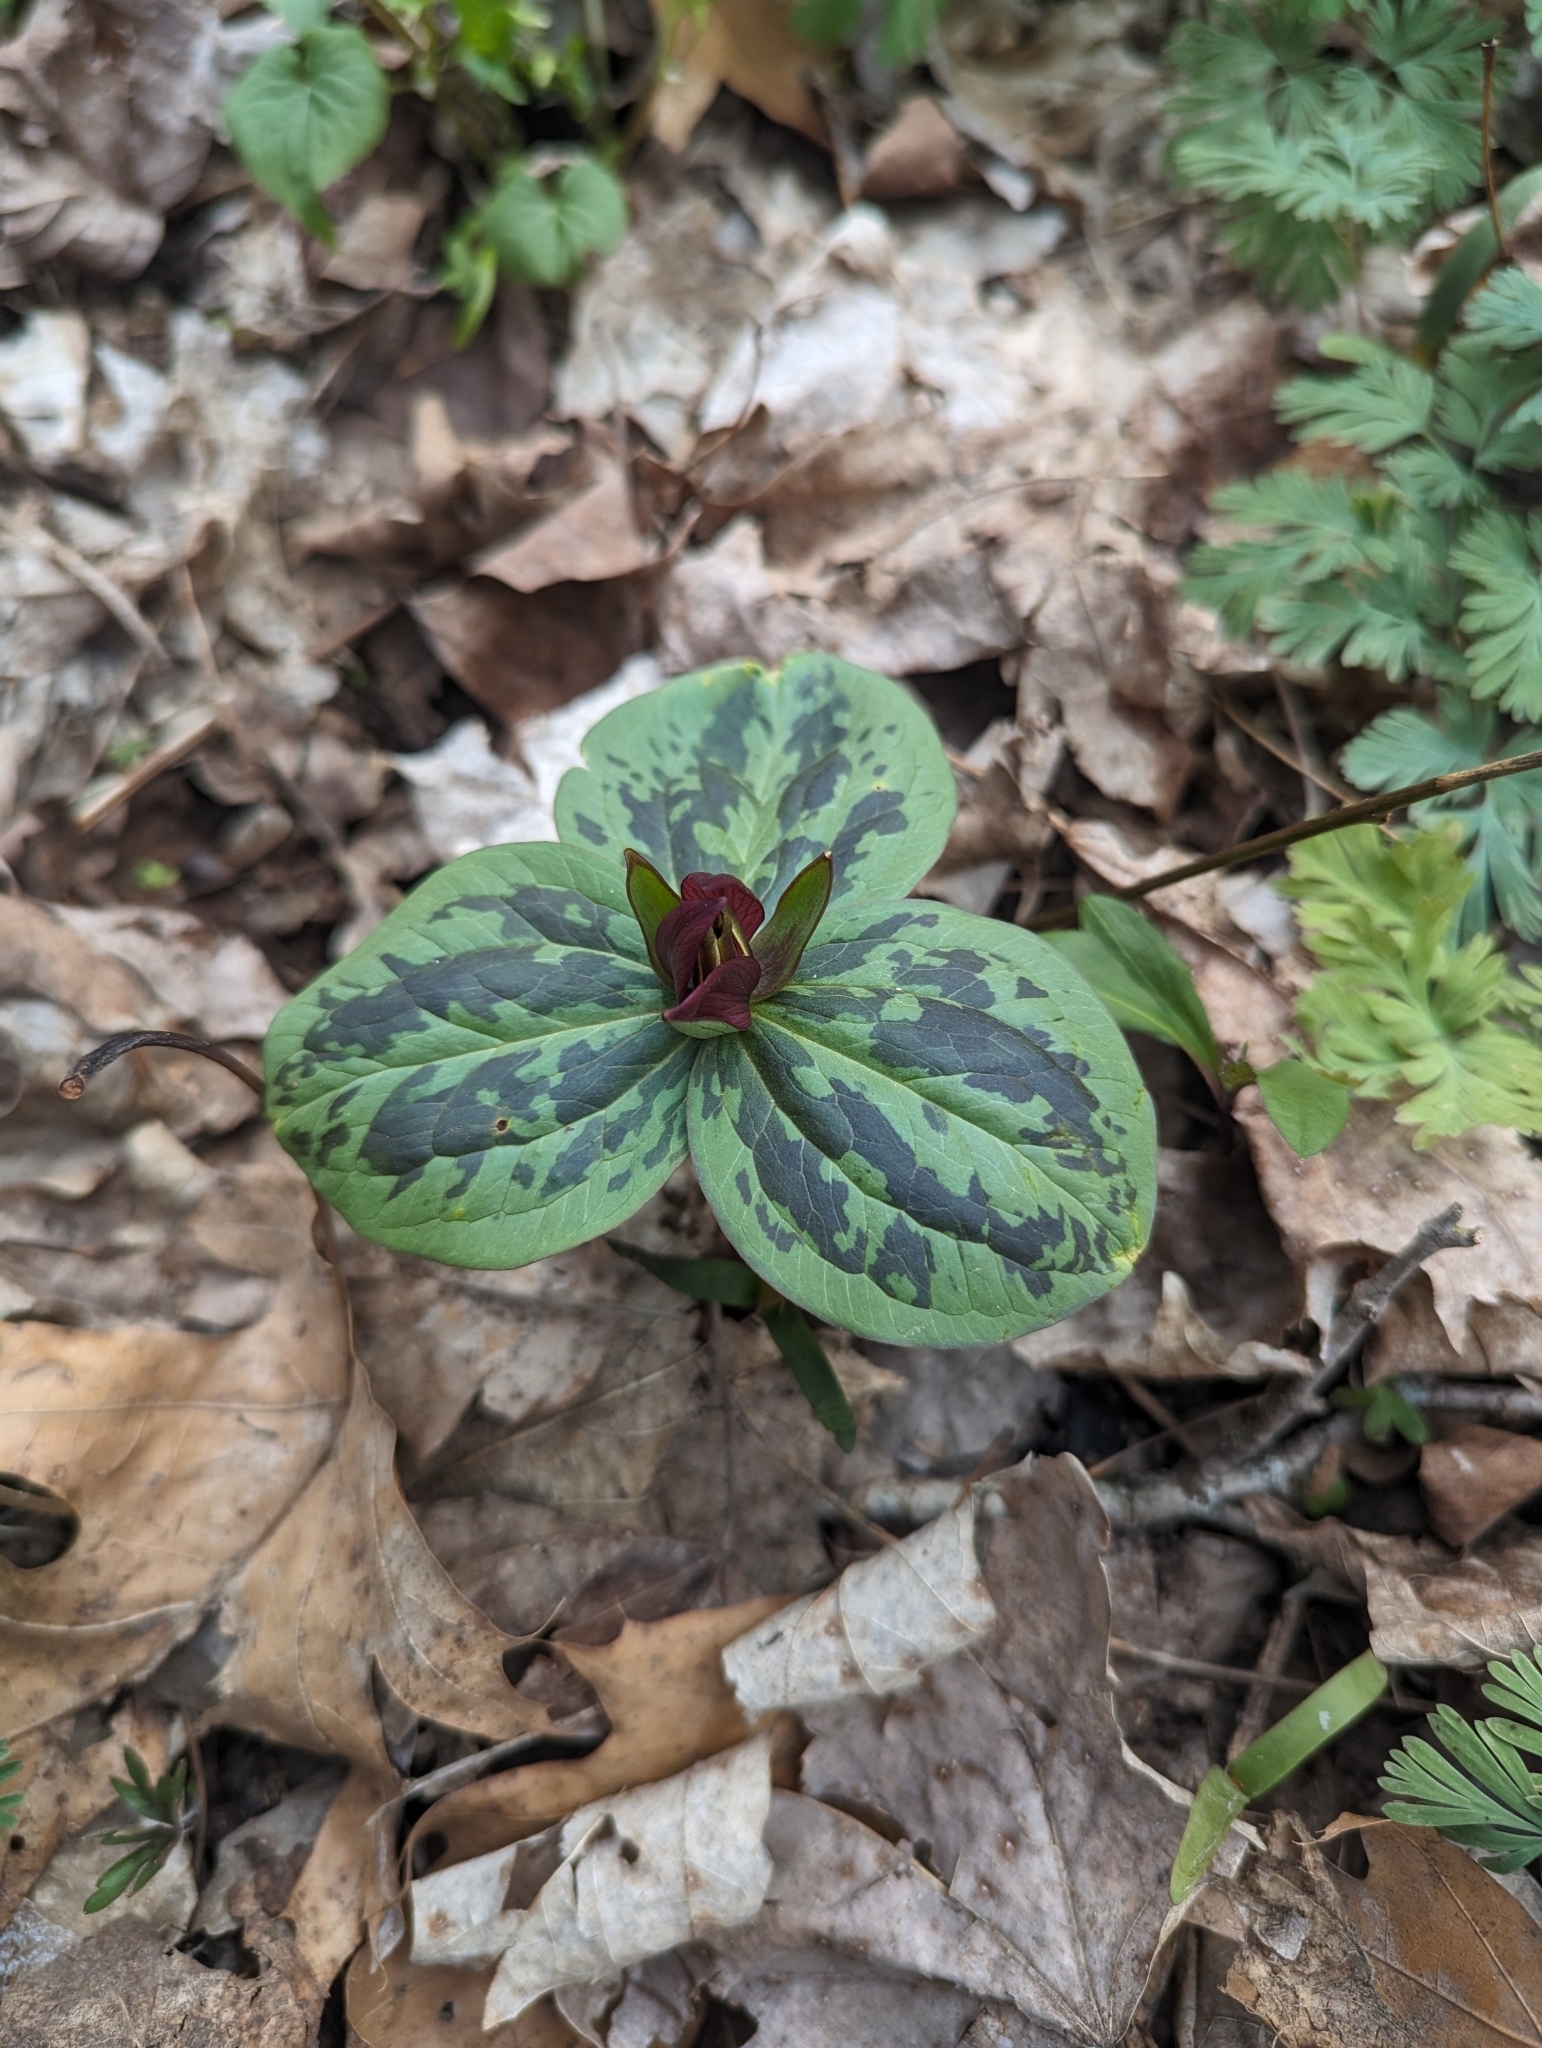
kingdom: Plantae
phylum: Tracheophyta
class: Liliopsida
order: Liliales
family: Melanthiaceae
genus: Trillium
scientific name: Trillium cuneatum
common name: Cuneate trillium
